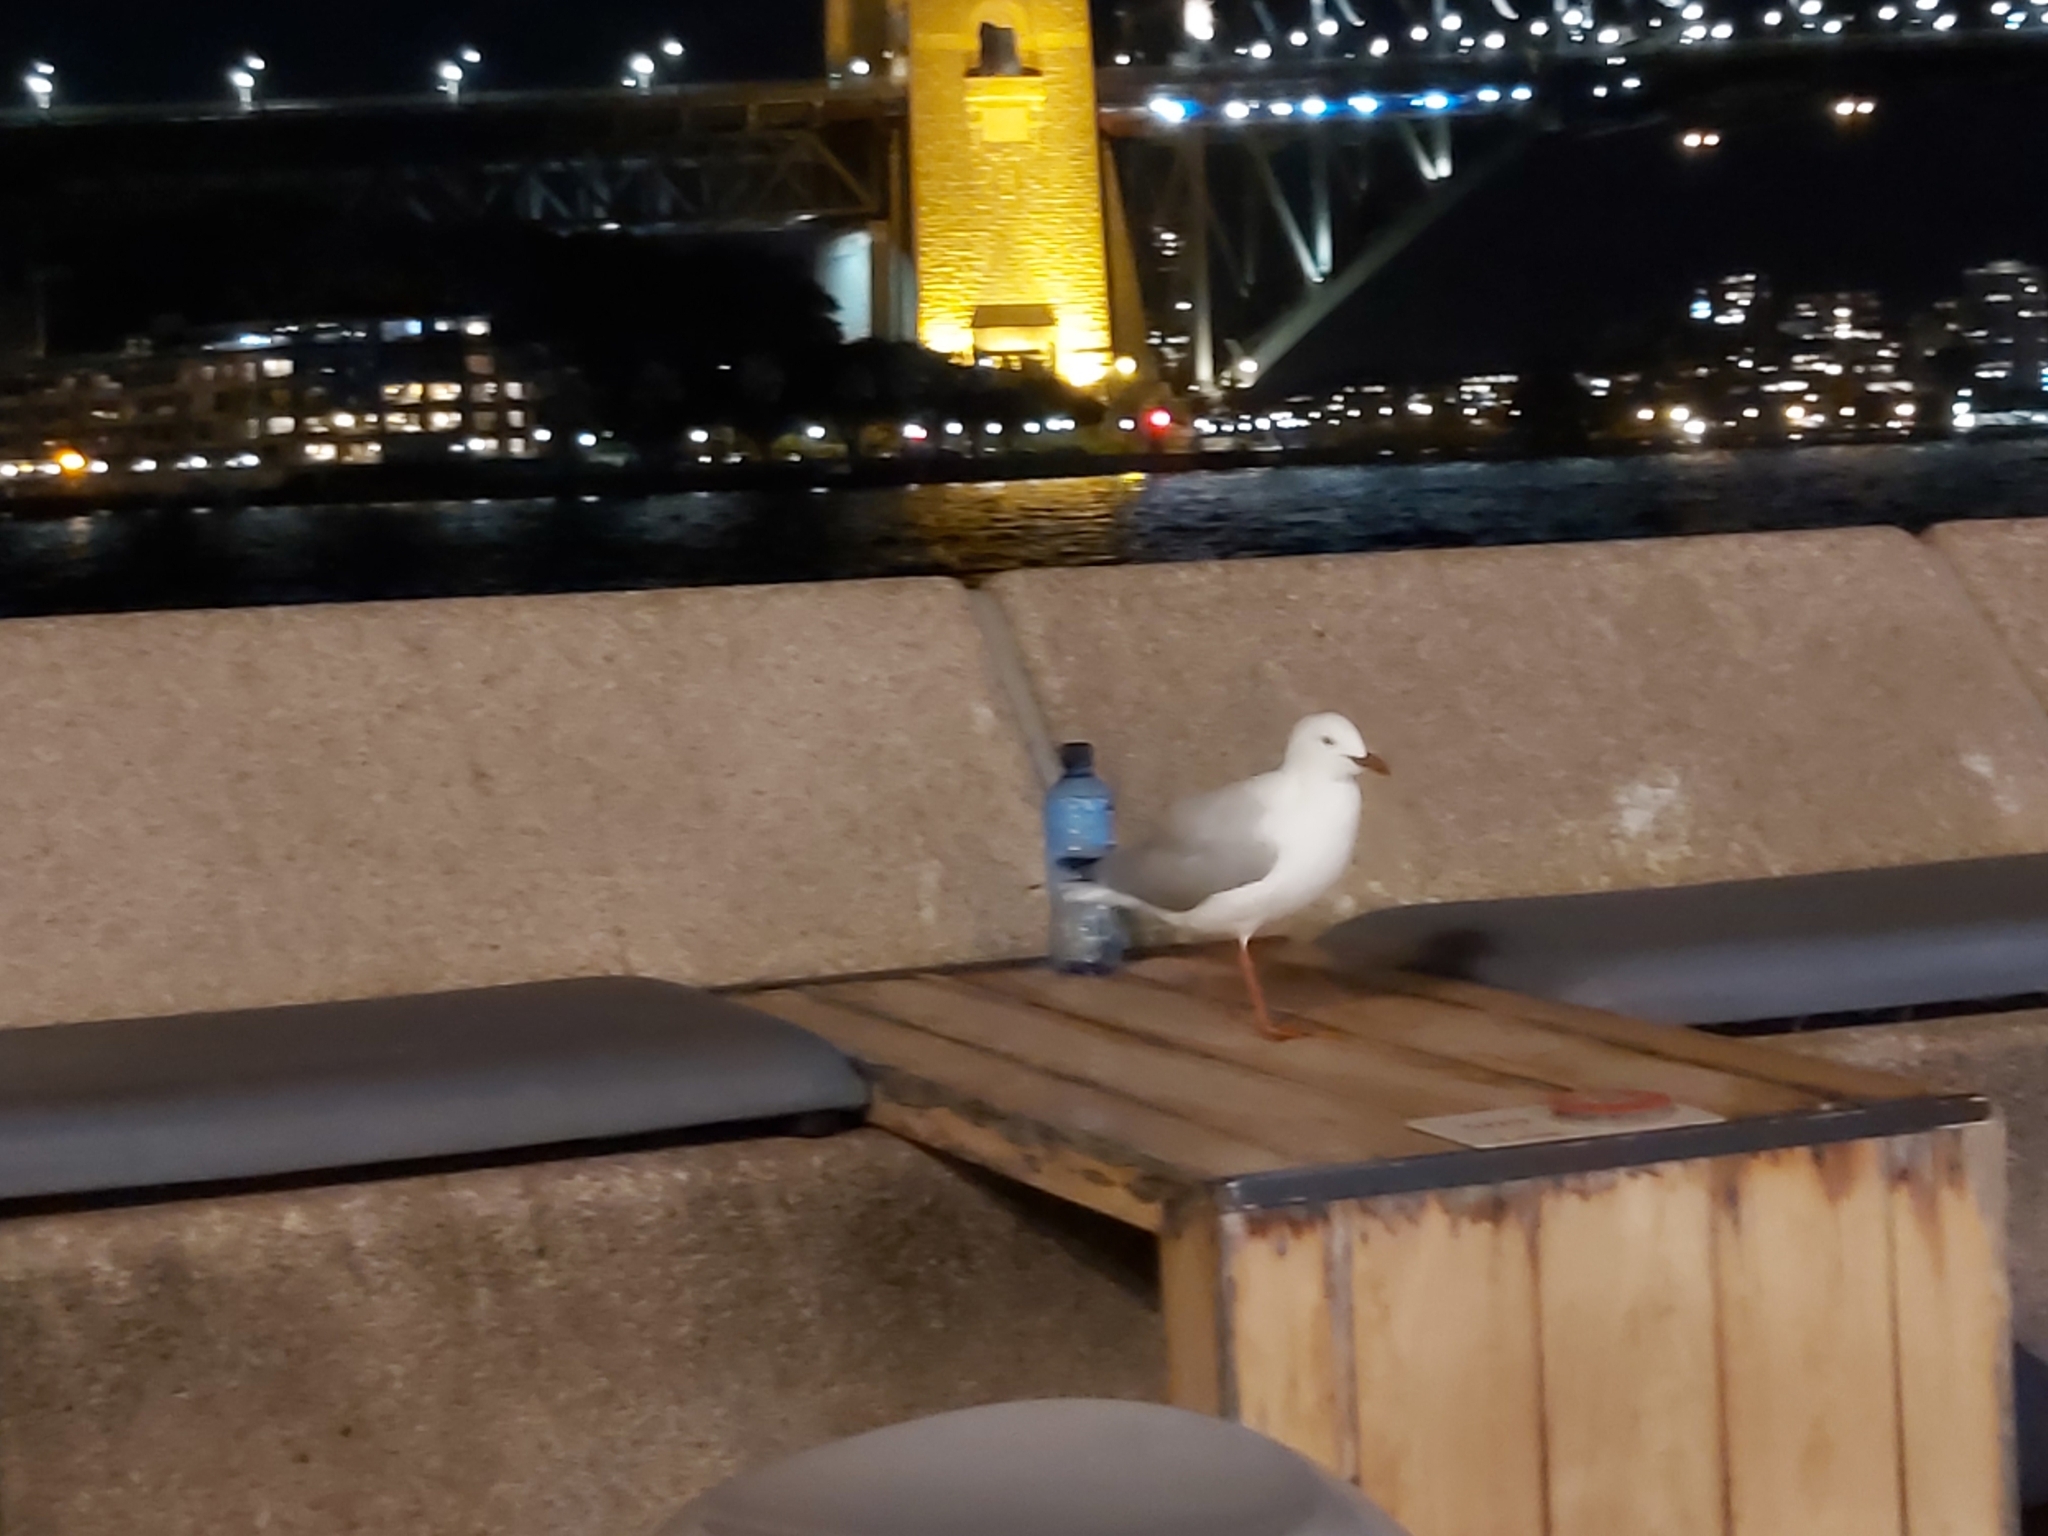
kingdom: Animalia
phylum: Chordata
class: Aves
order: Charadriiformes
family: Laridae
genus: Chroicocephalus
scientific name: Chroicocephalus novaehollandiae
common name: Silver gull
